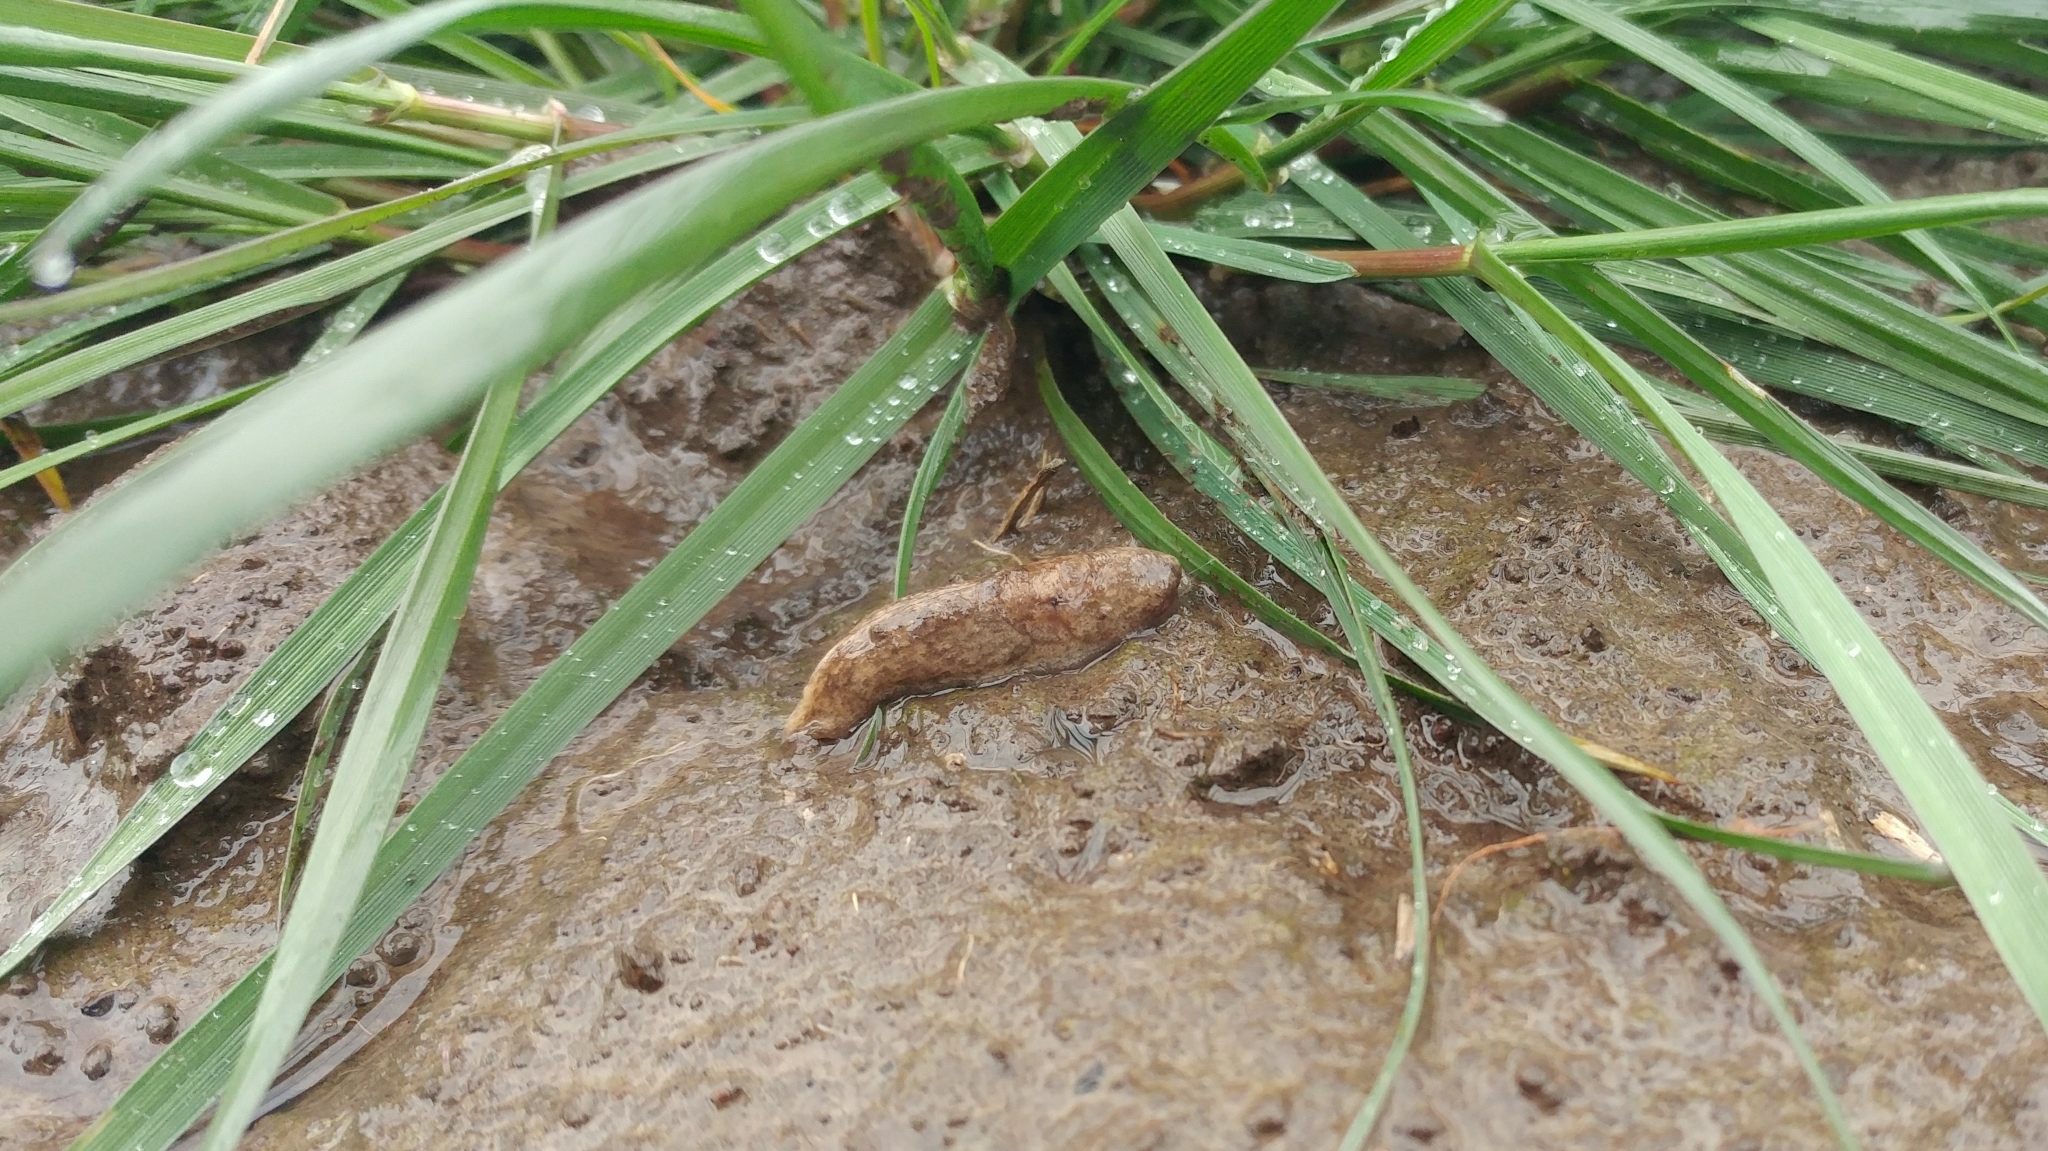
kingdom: Animalia
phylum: Mollusca
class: Gastropoda
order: Stylommatophora
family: Agriolimacidae
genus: Deroceras
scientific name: Deroceras reticulatum
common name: Gray field slug
